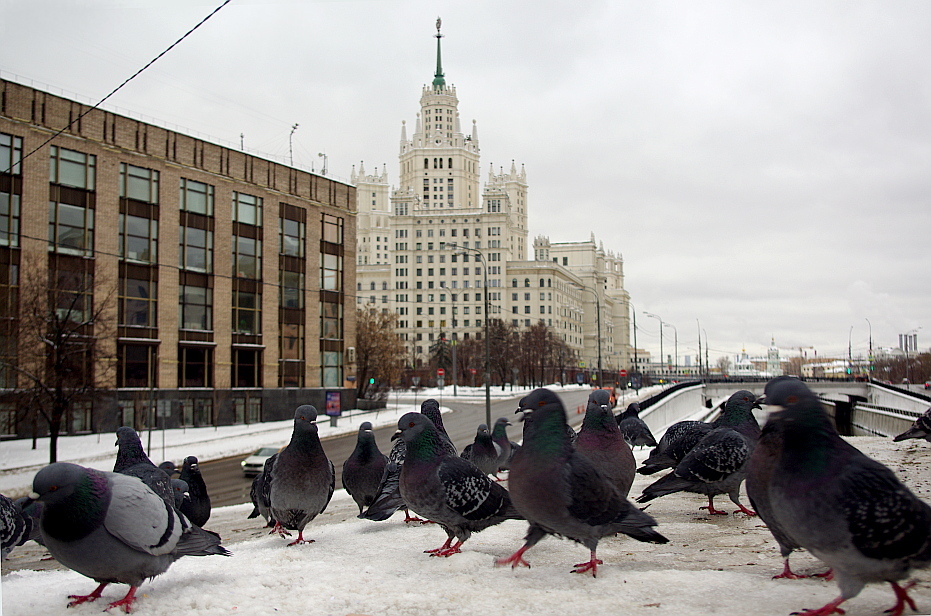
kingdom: Animalia
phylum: Chordata
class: Aves
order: Columbiformes
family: Columbidae
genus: Columba
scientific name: Columba livia
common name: Rock pigeon
